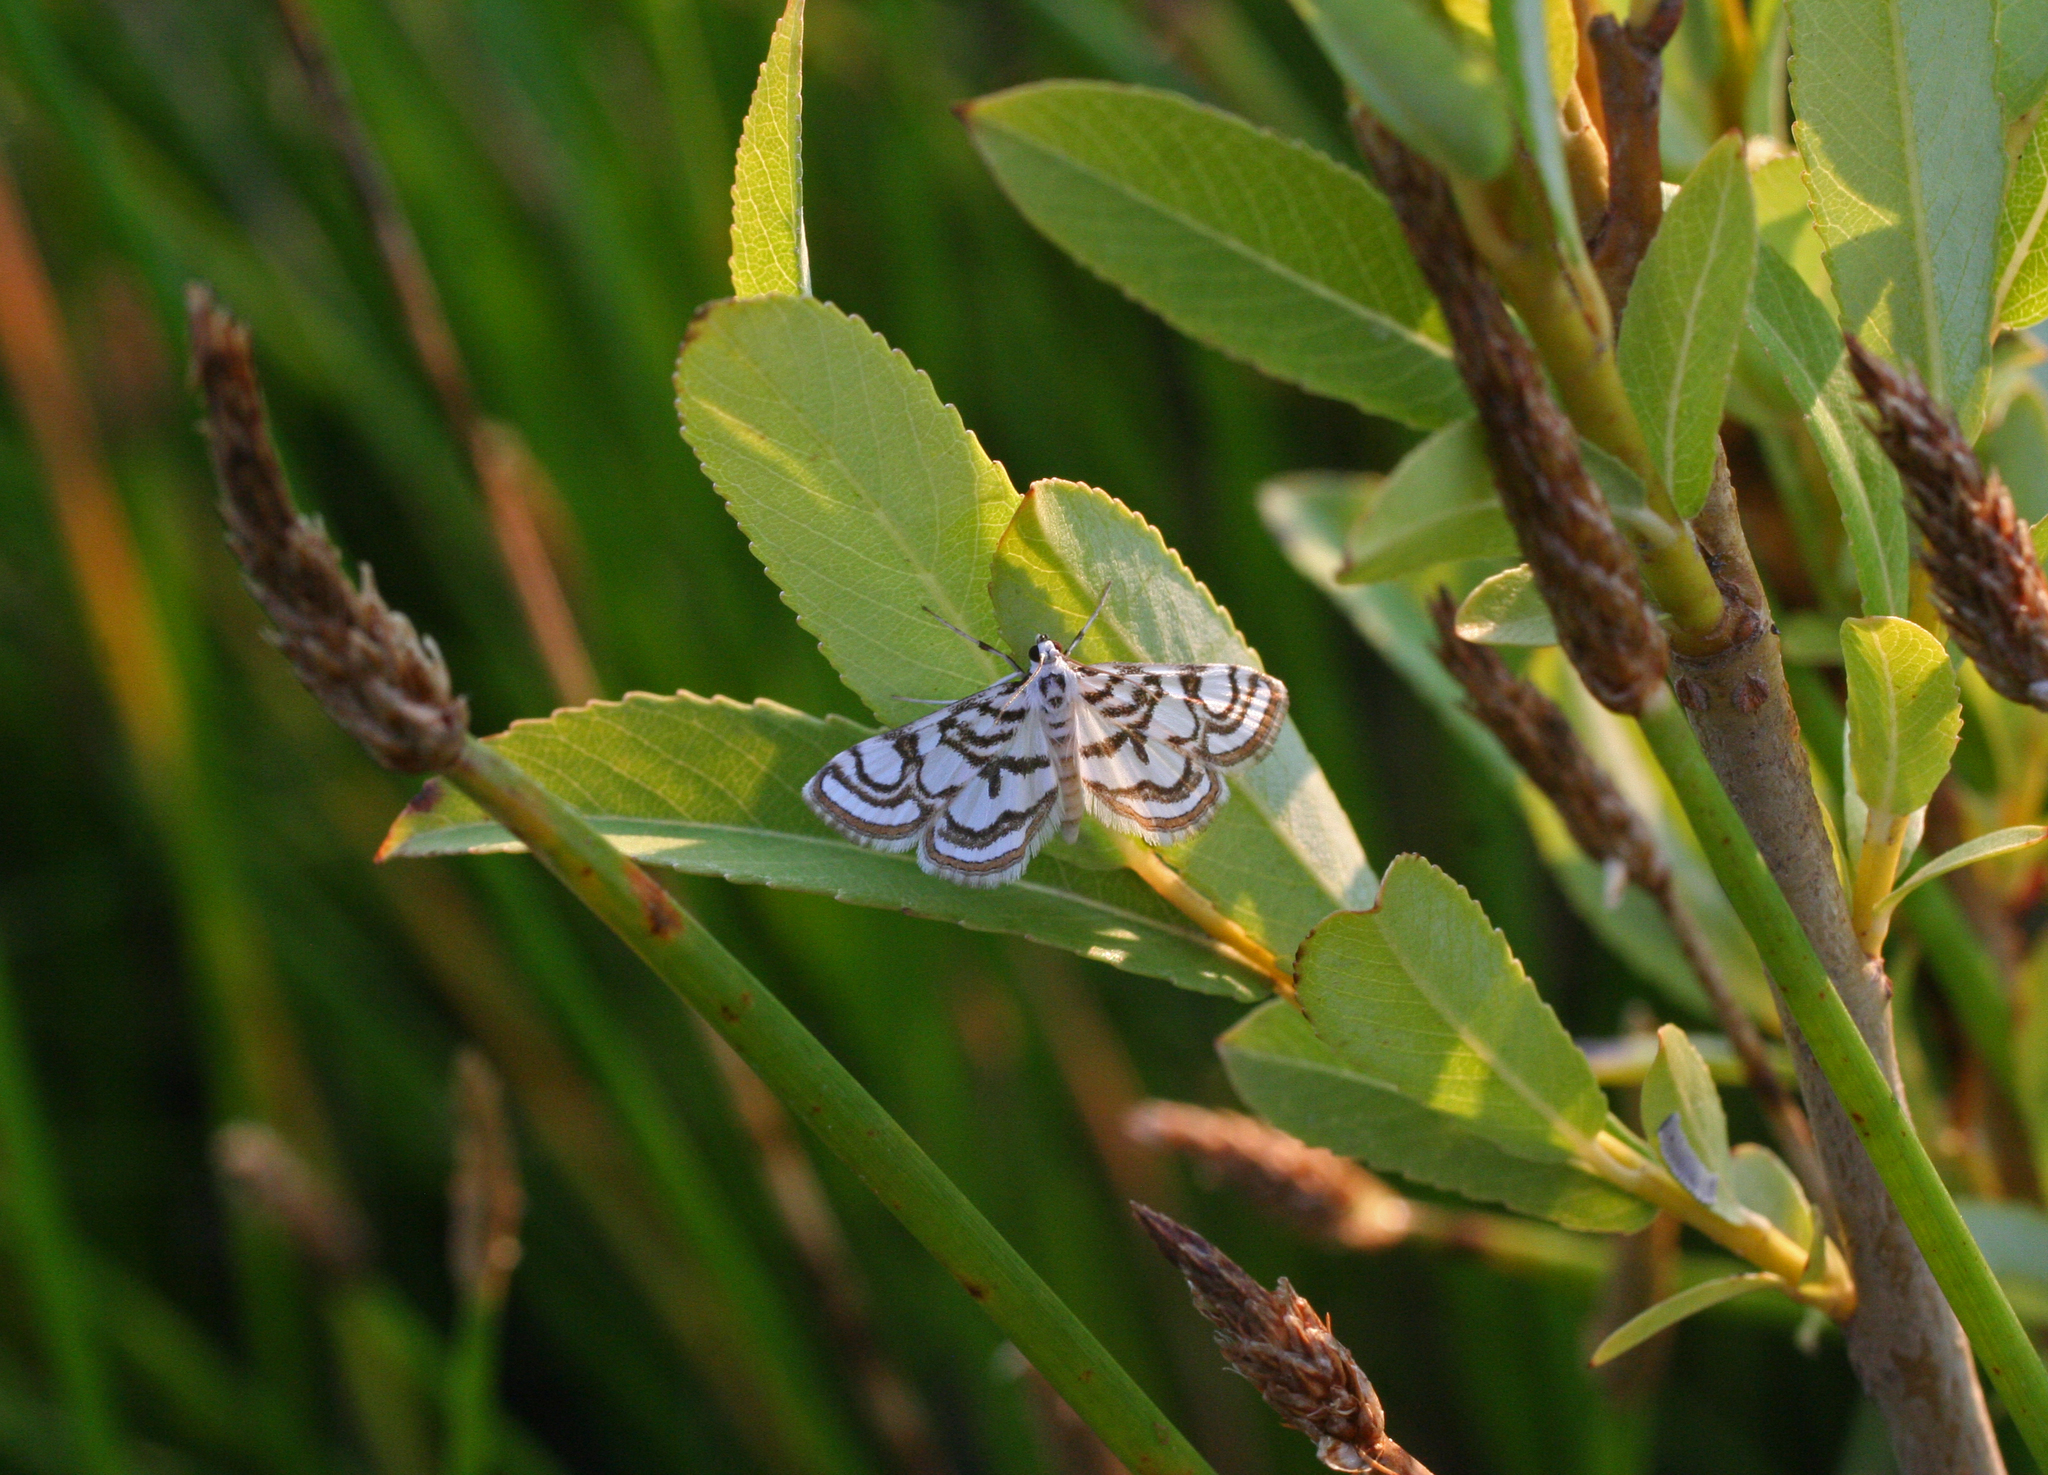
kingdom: Plantae
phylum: Tracheophyta
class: Liliopsida
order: Poales
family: Cyperaceae
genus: Eleocharis
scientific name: Eleocharis palustris
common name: Common spike-rush
